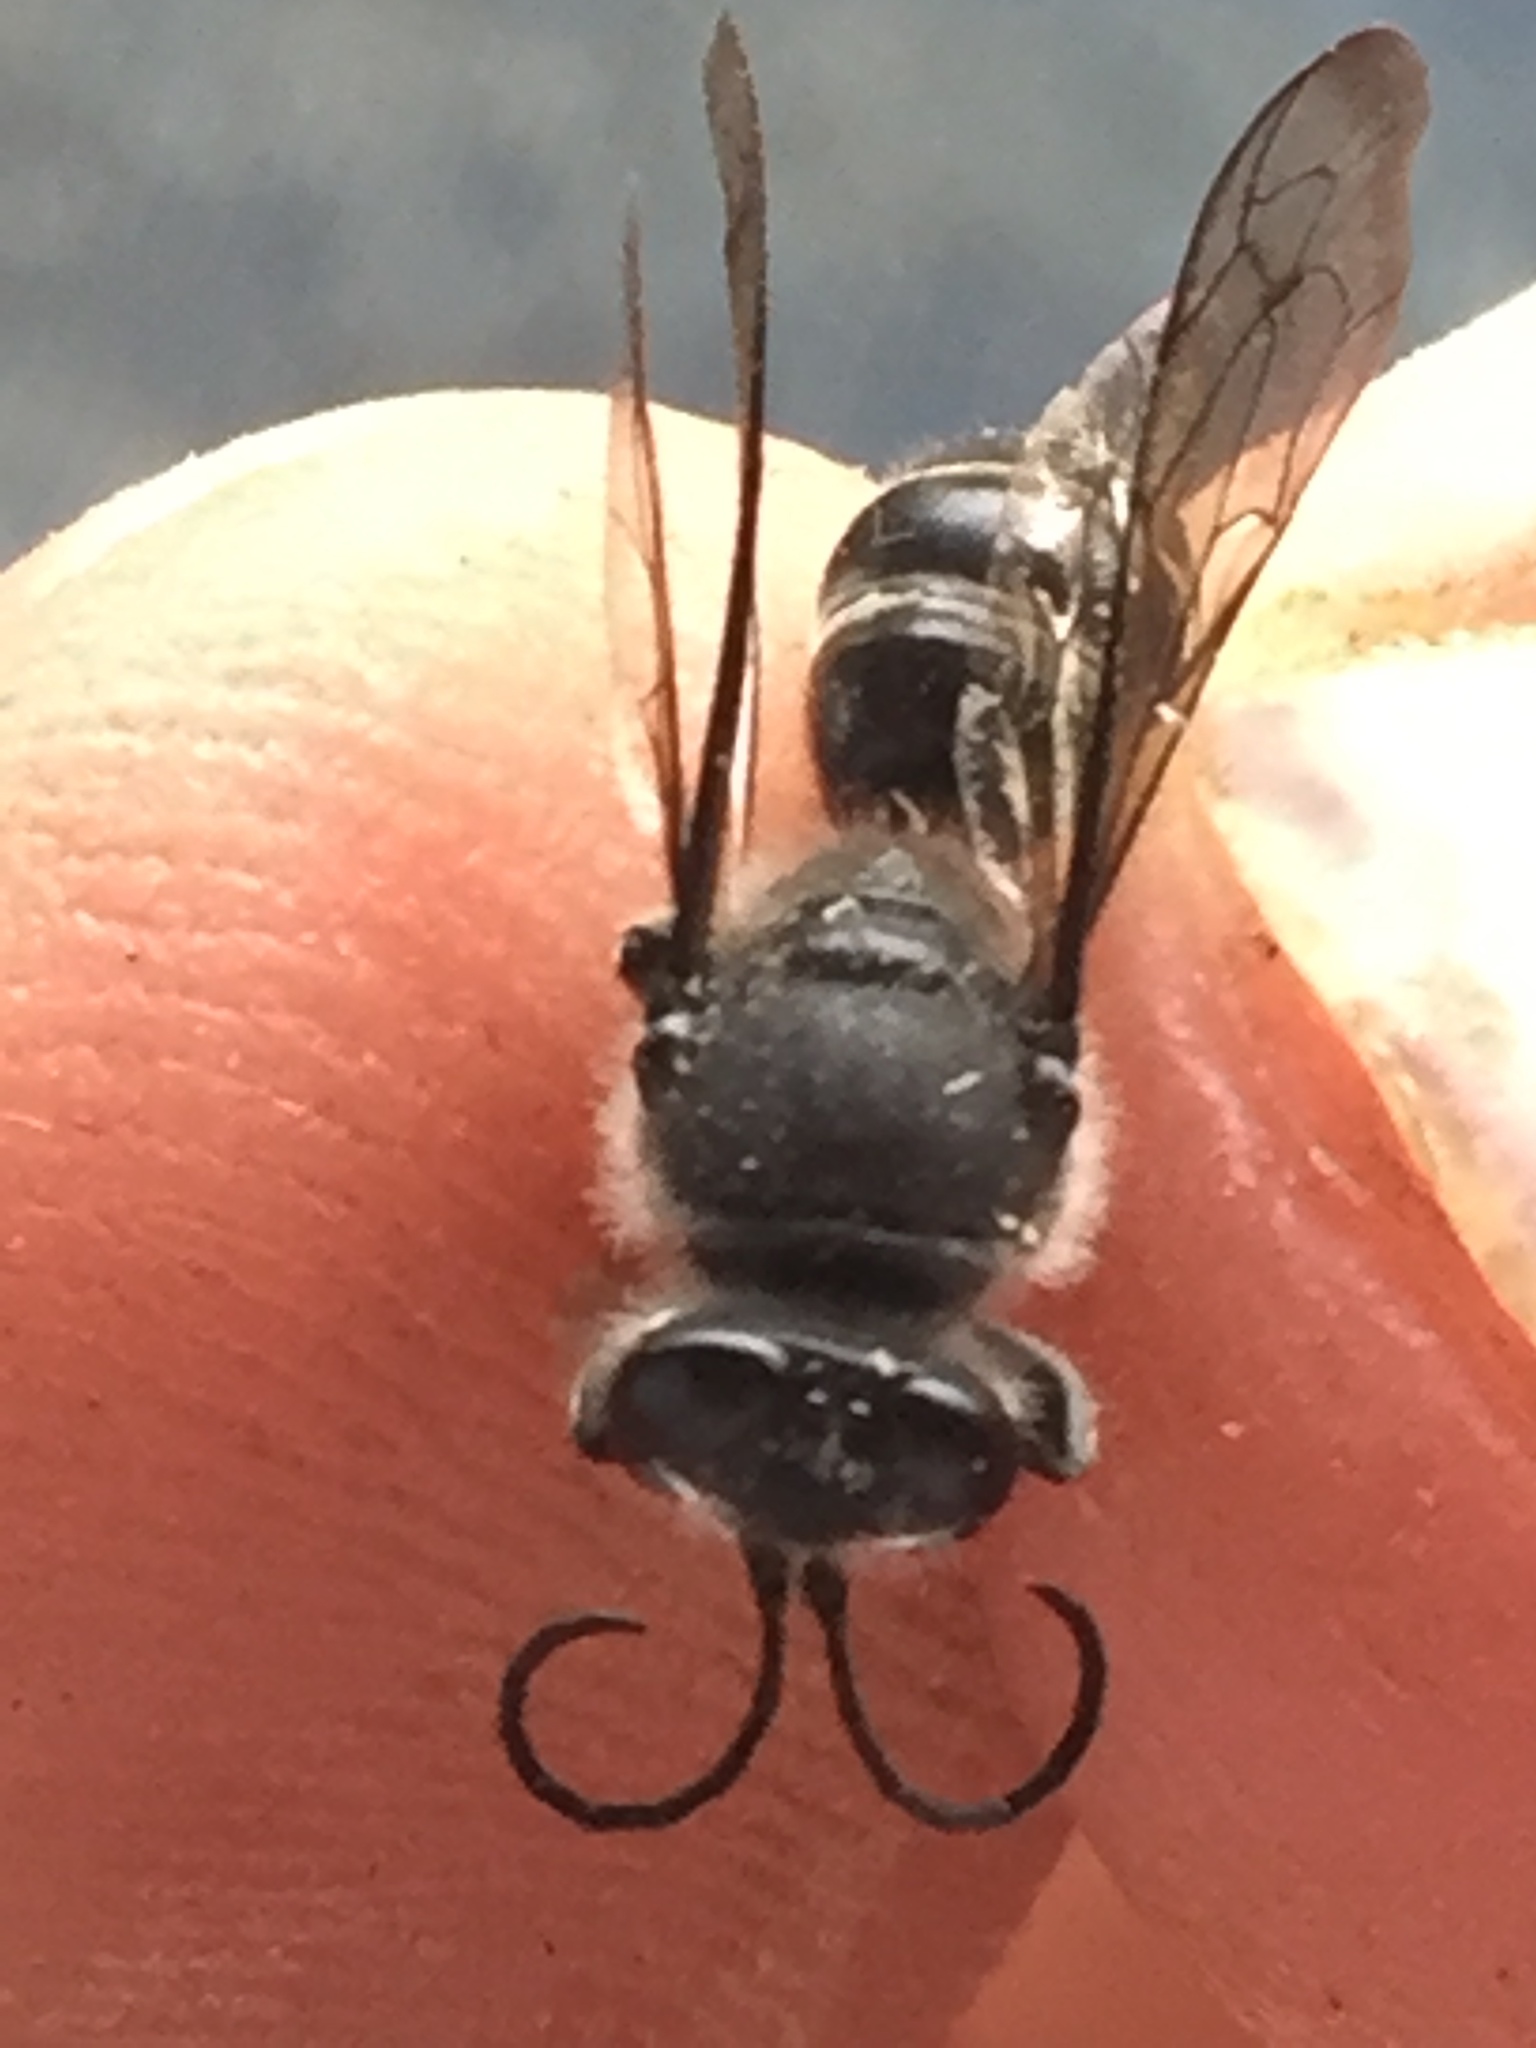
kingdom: Animalia
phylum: Arthropoda
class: Insecta
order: Hymenoptera
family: Crabronidae
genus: Pison
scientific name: Pison spinolae
